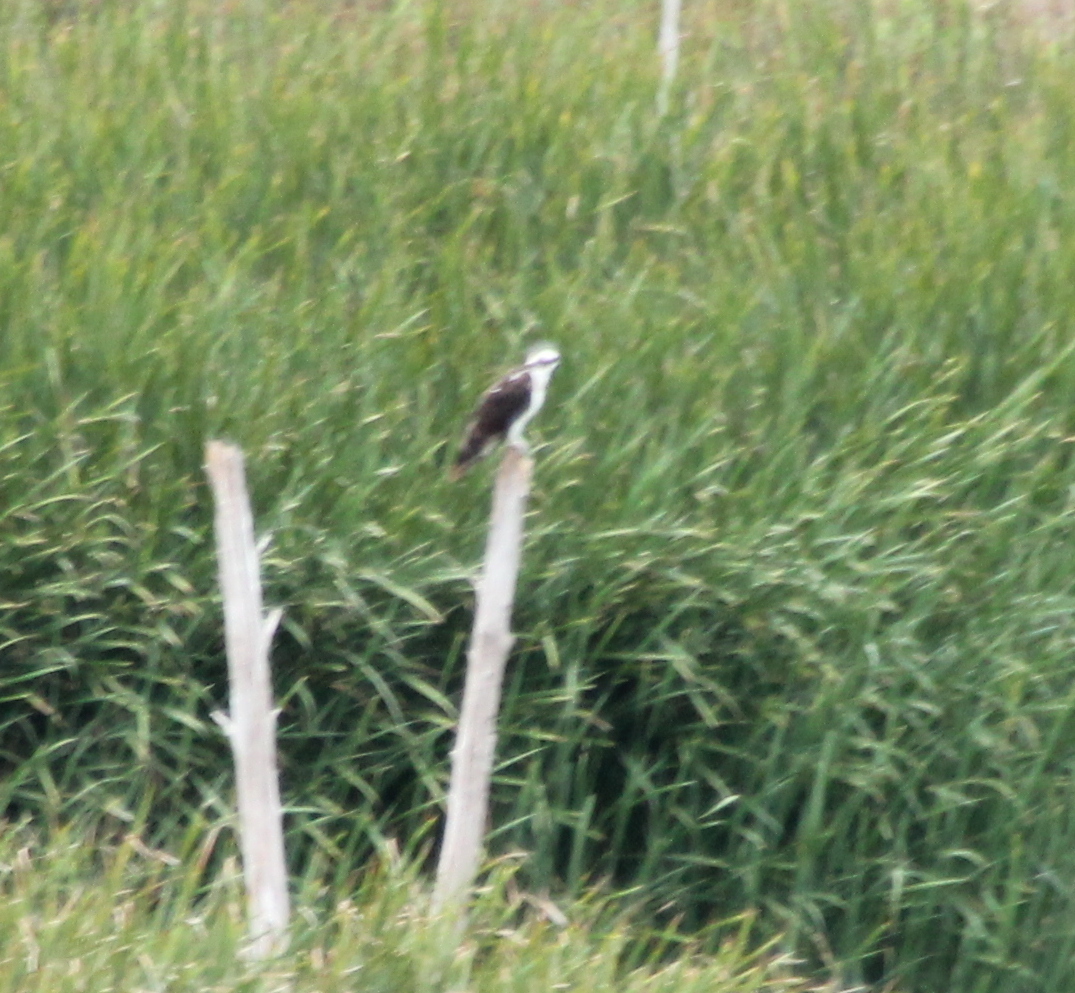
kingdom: Animalia
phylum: Chordata
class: Aves
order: Accipitriformes
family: Pandionidae
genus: Pandion
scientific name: Pandion haliaetus
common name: Osprey
